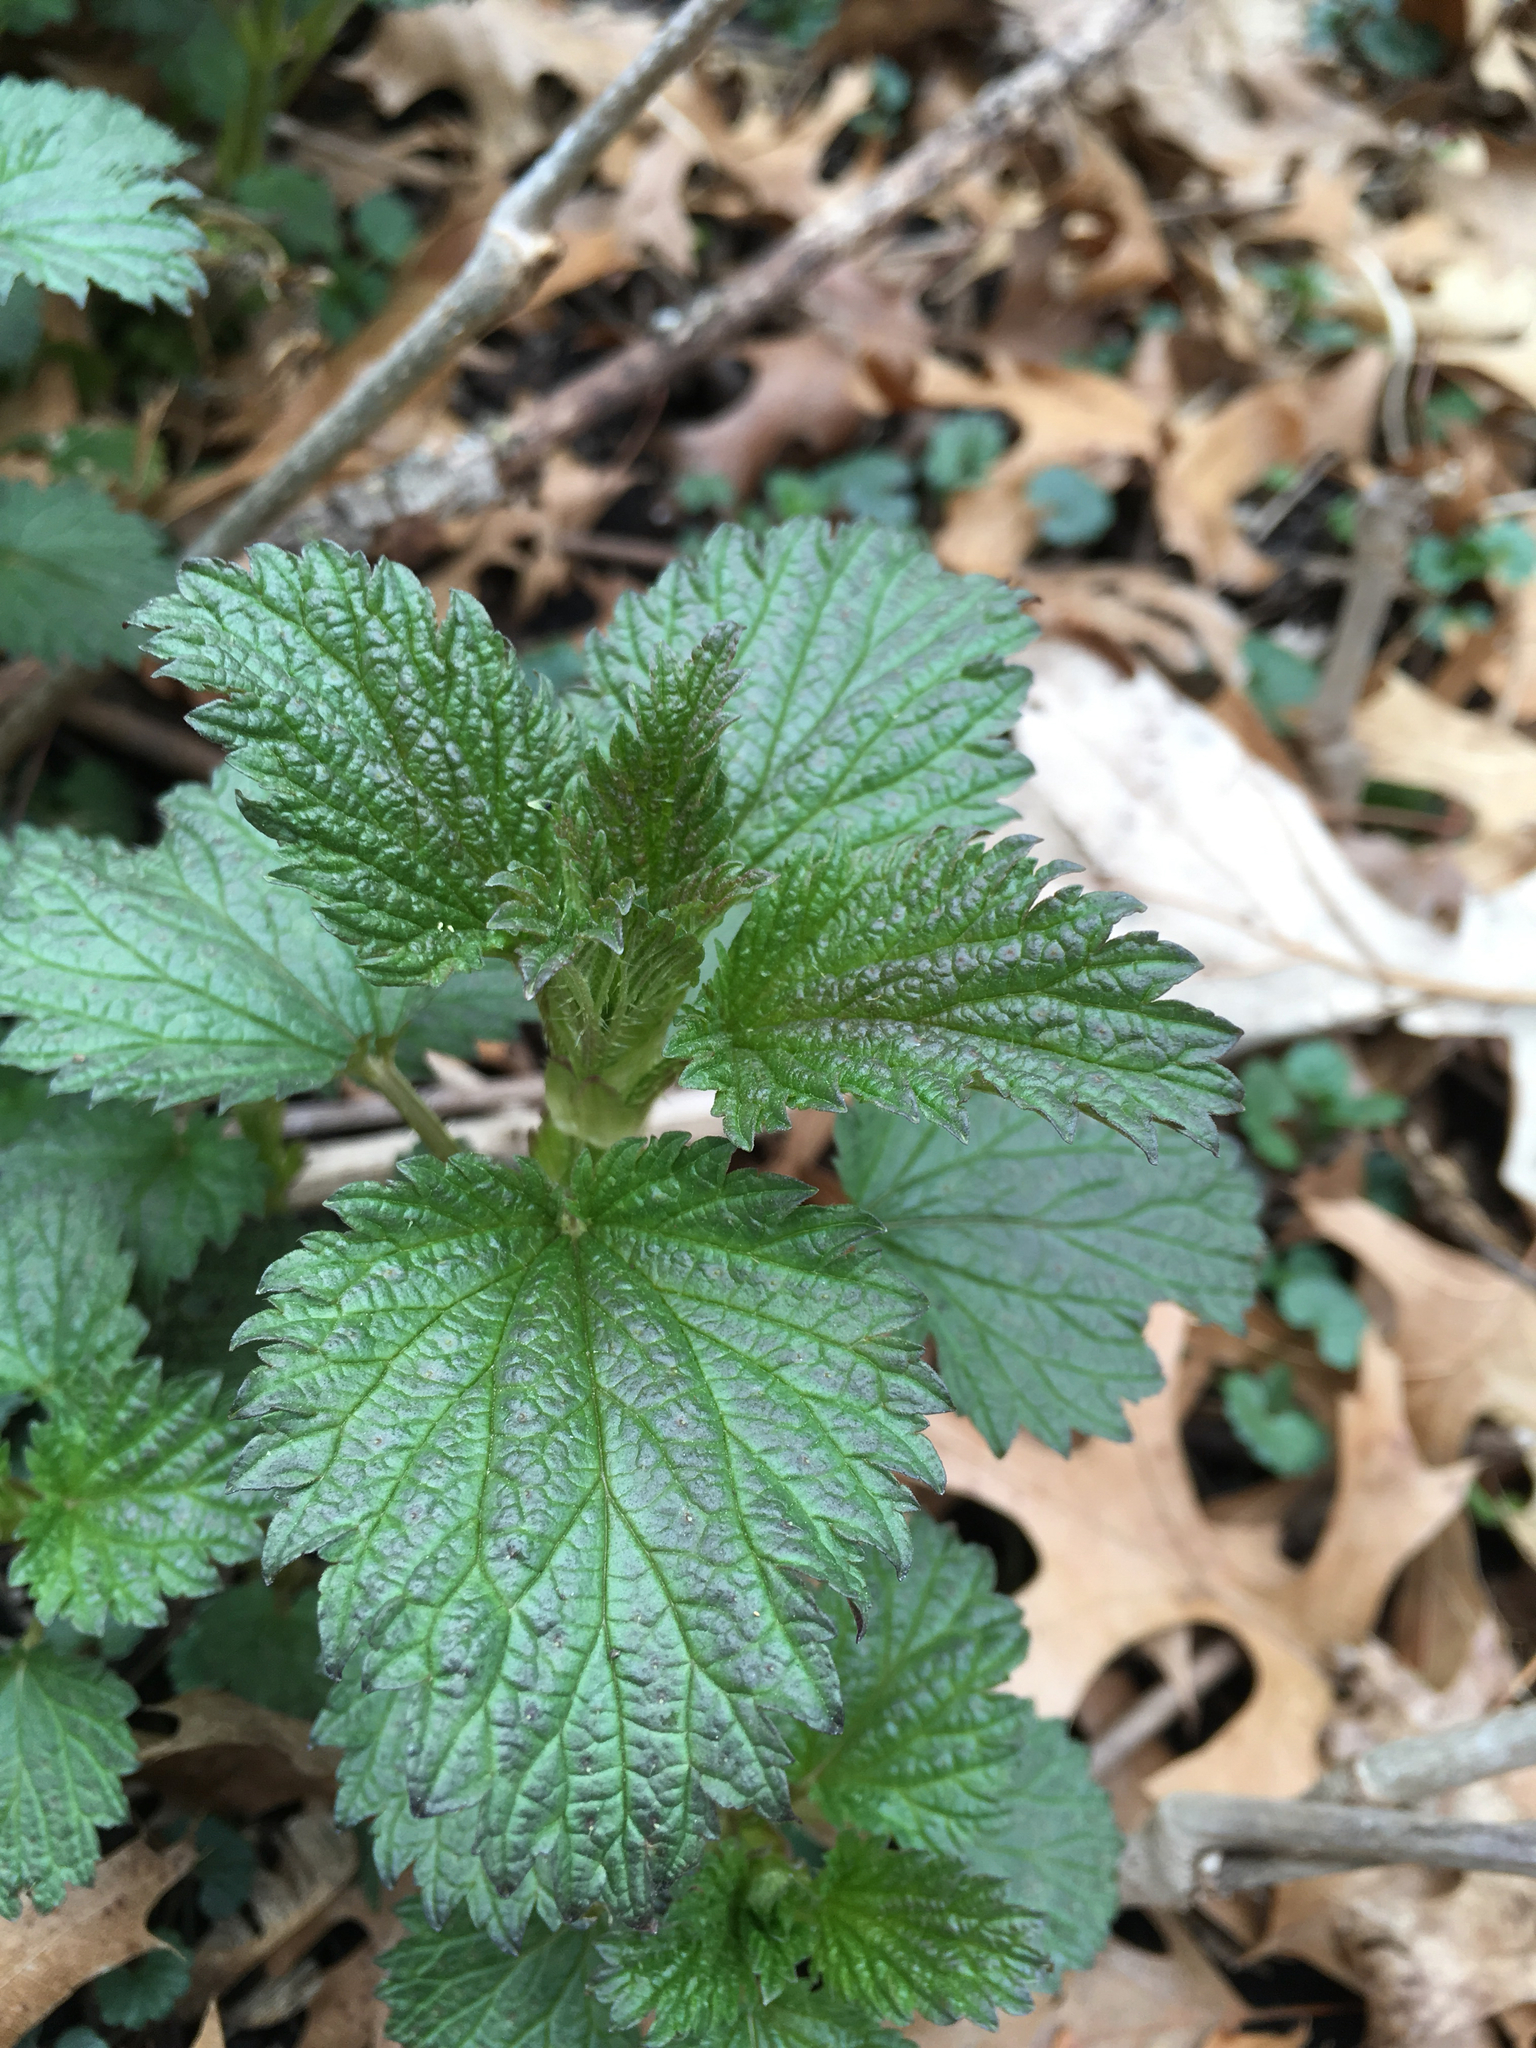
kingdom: Plantae
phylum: Tracheophyta
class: Magnoliopsida
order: Rosales
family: Urticaceae
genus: Urtica
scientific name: Urtica dioica
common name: Common nettle
